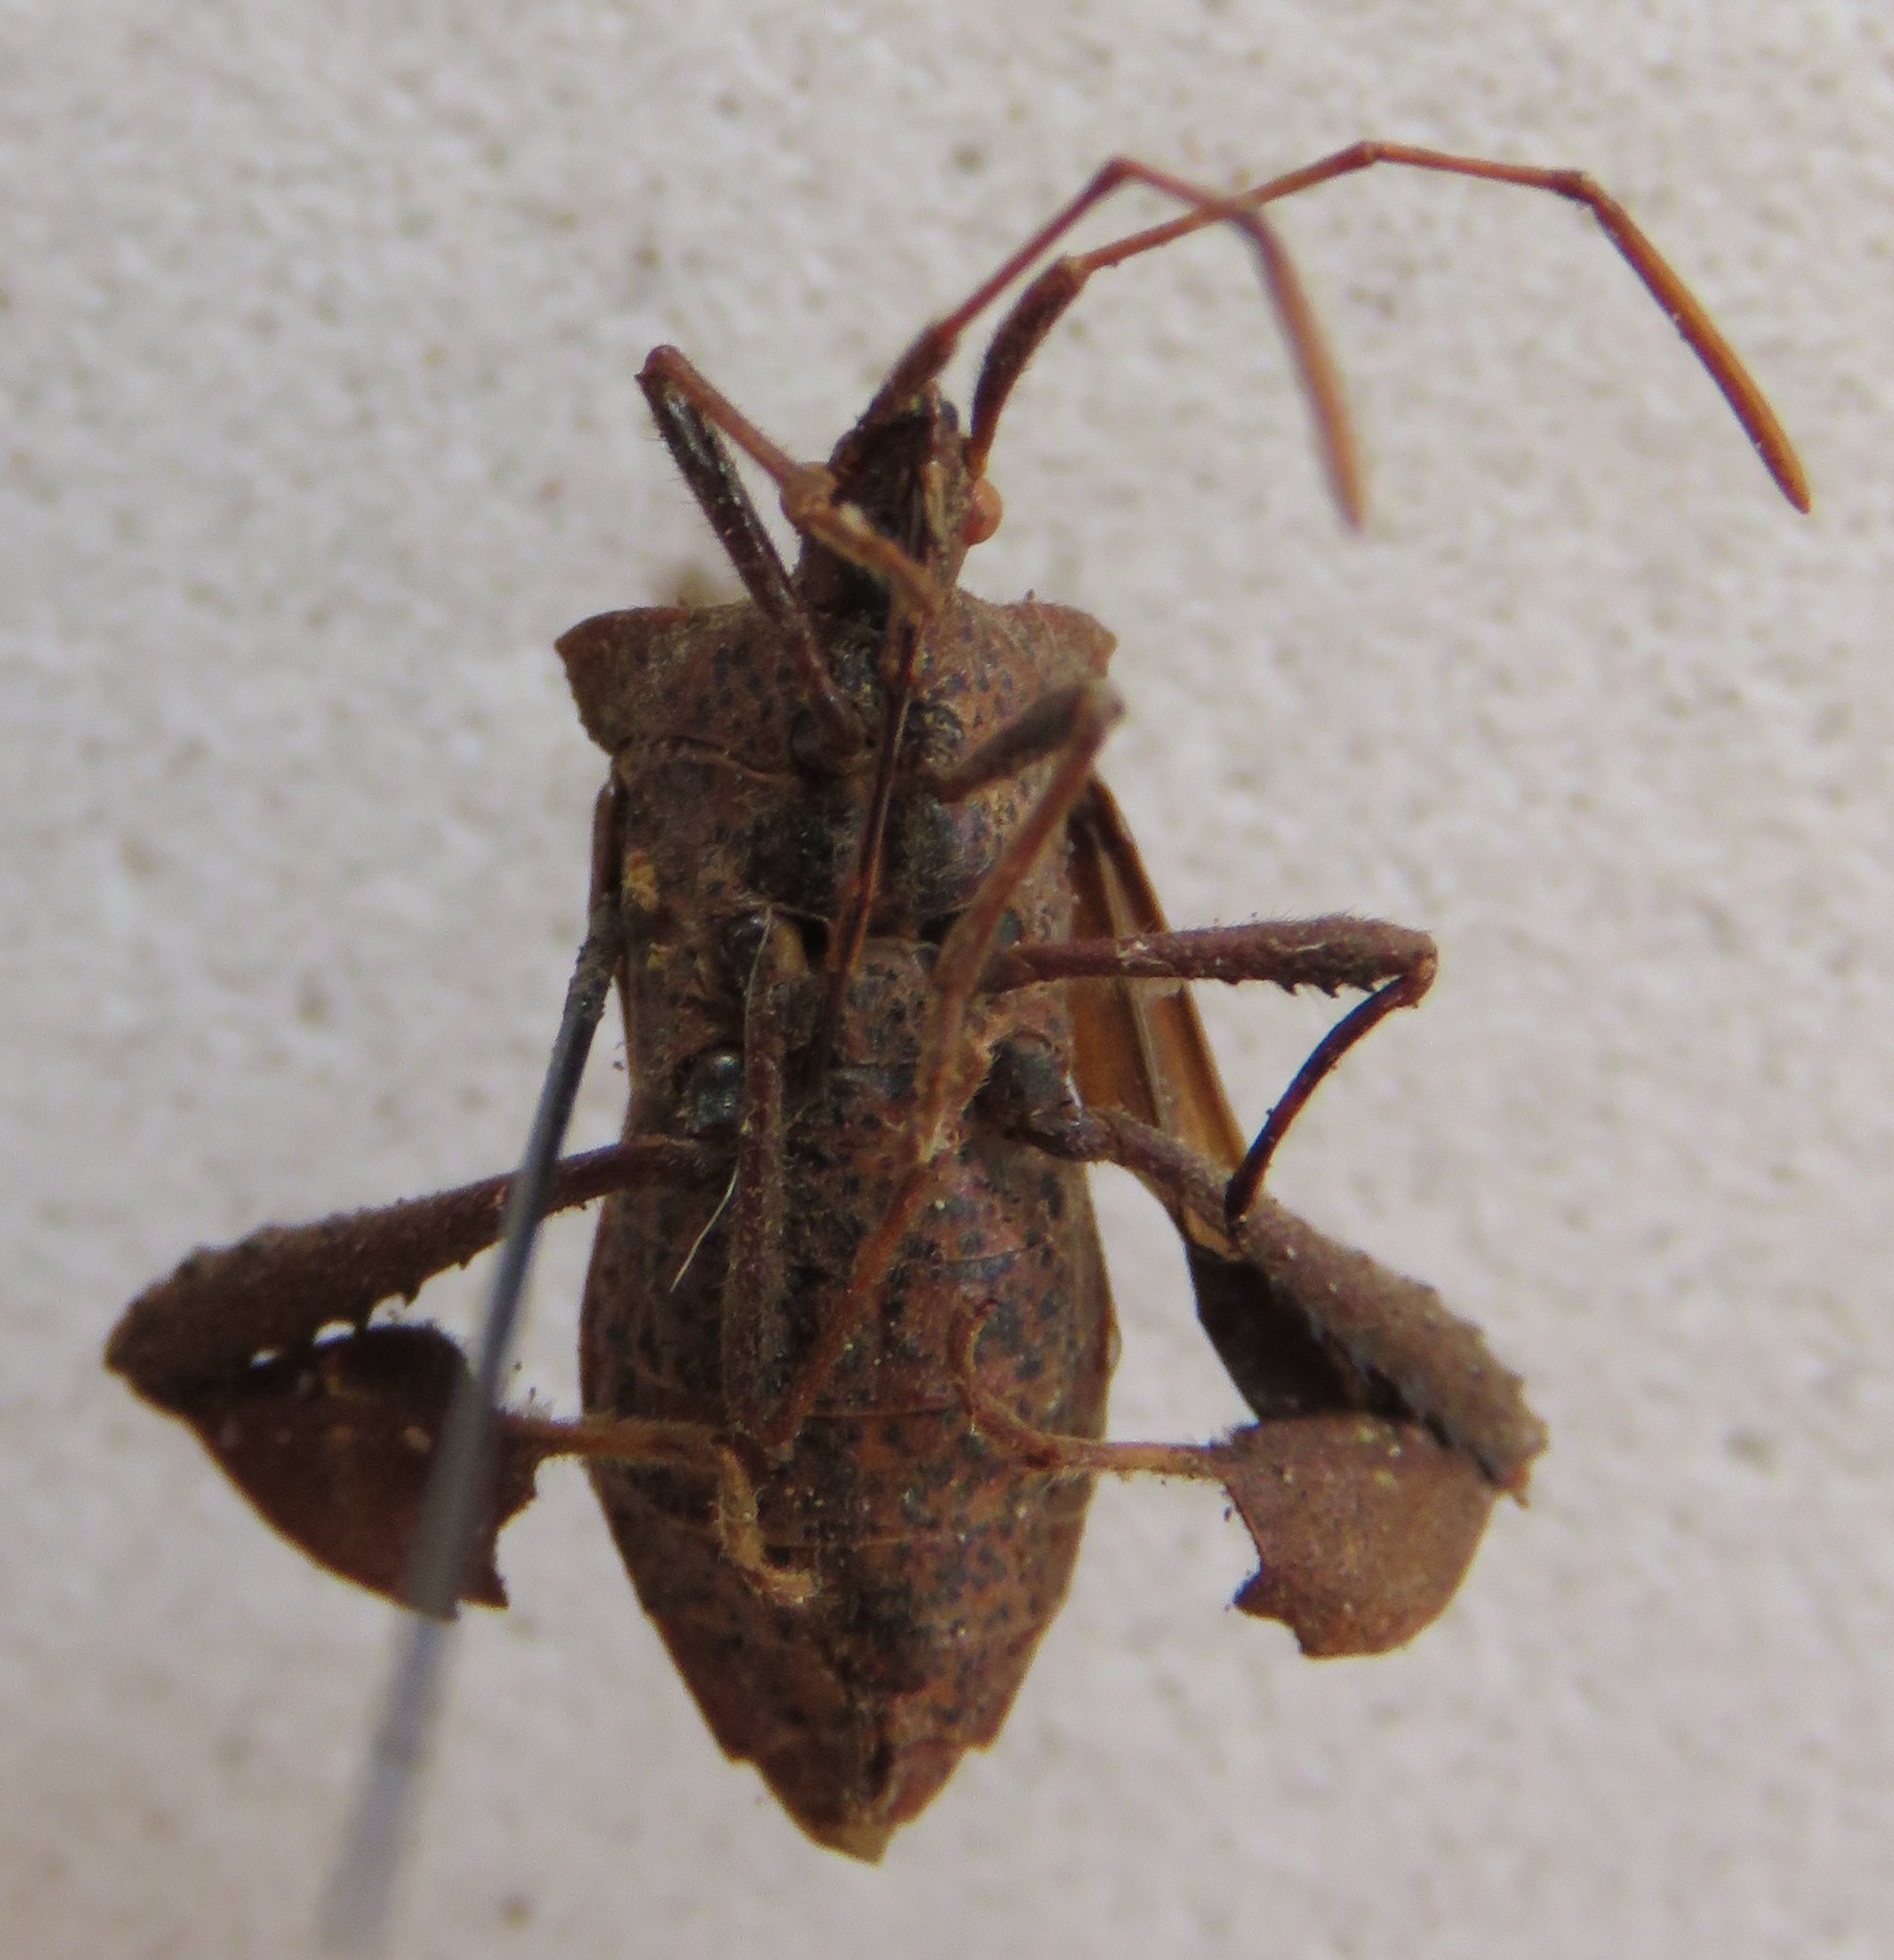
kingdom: Animalia
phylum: Arthropoda
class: Insecta
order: Hemiptera
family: Coreidae
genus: Leptoglossus
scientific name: Leptoglossus brevirostris
